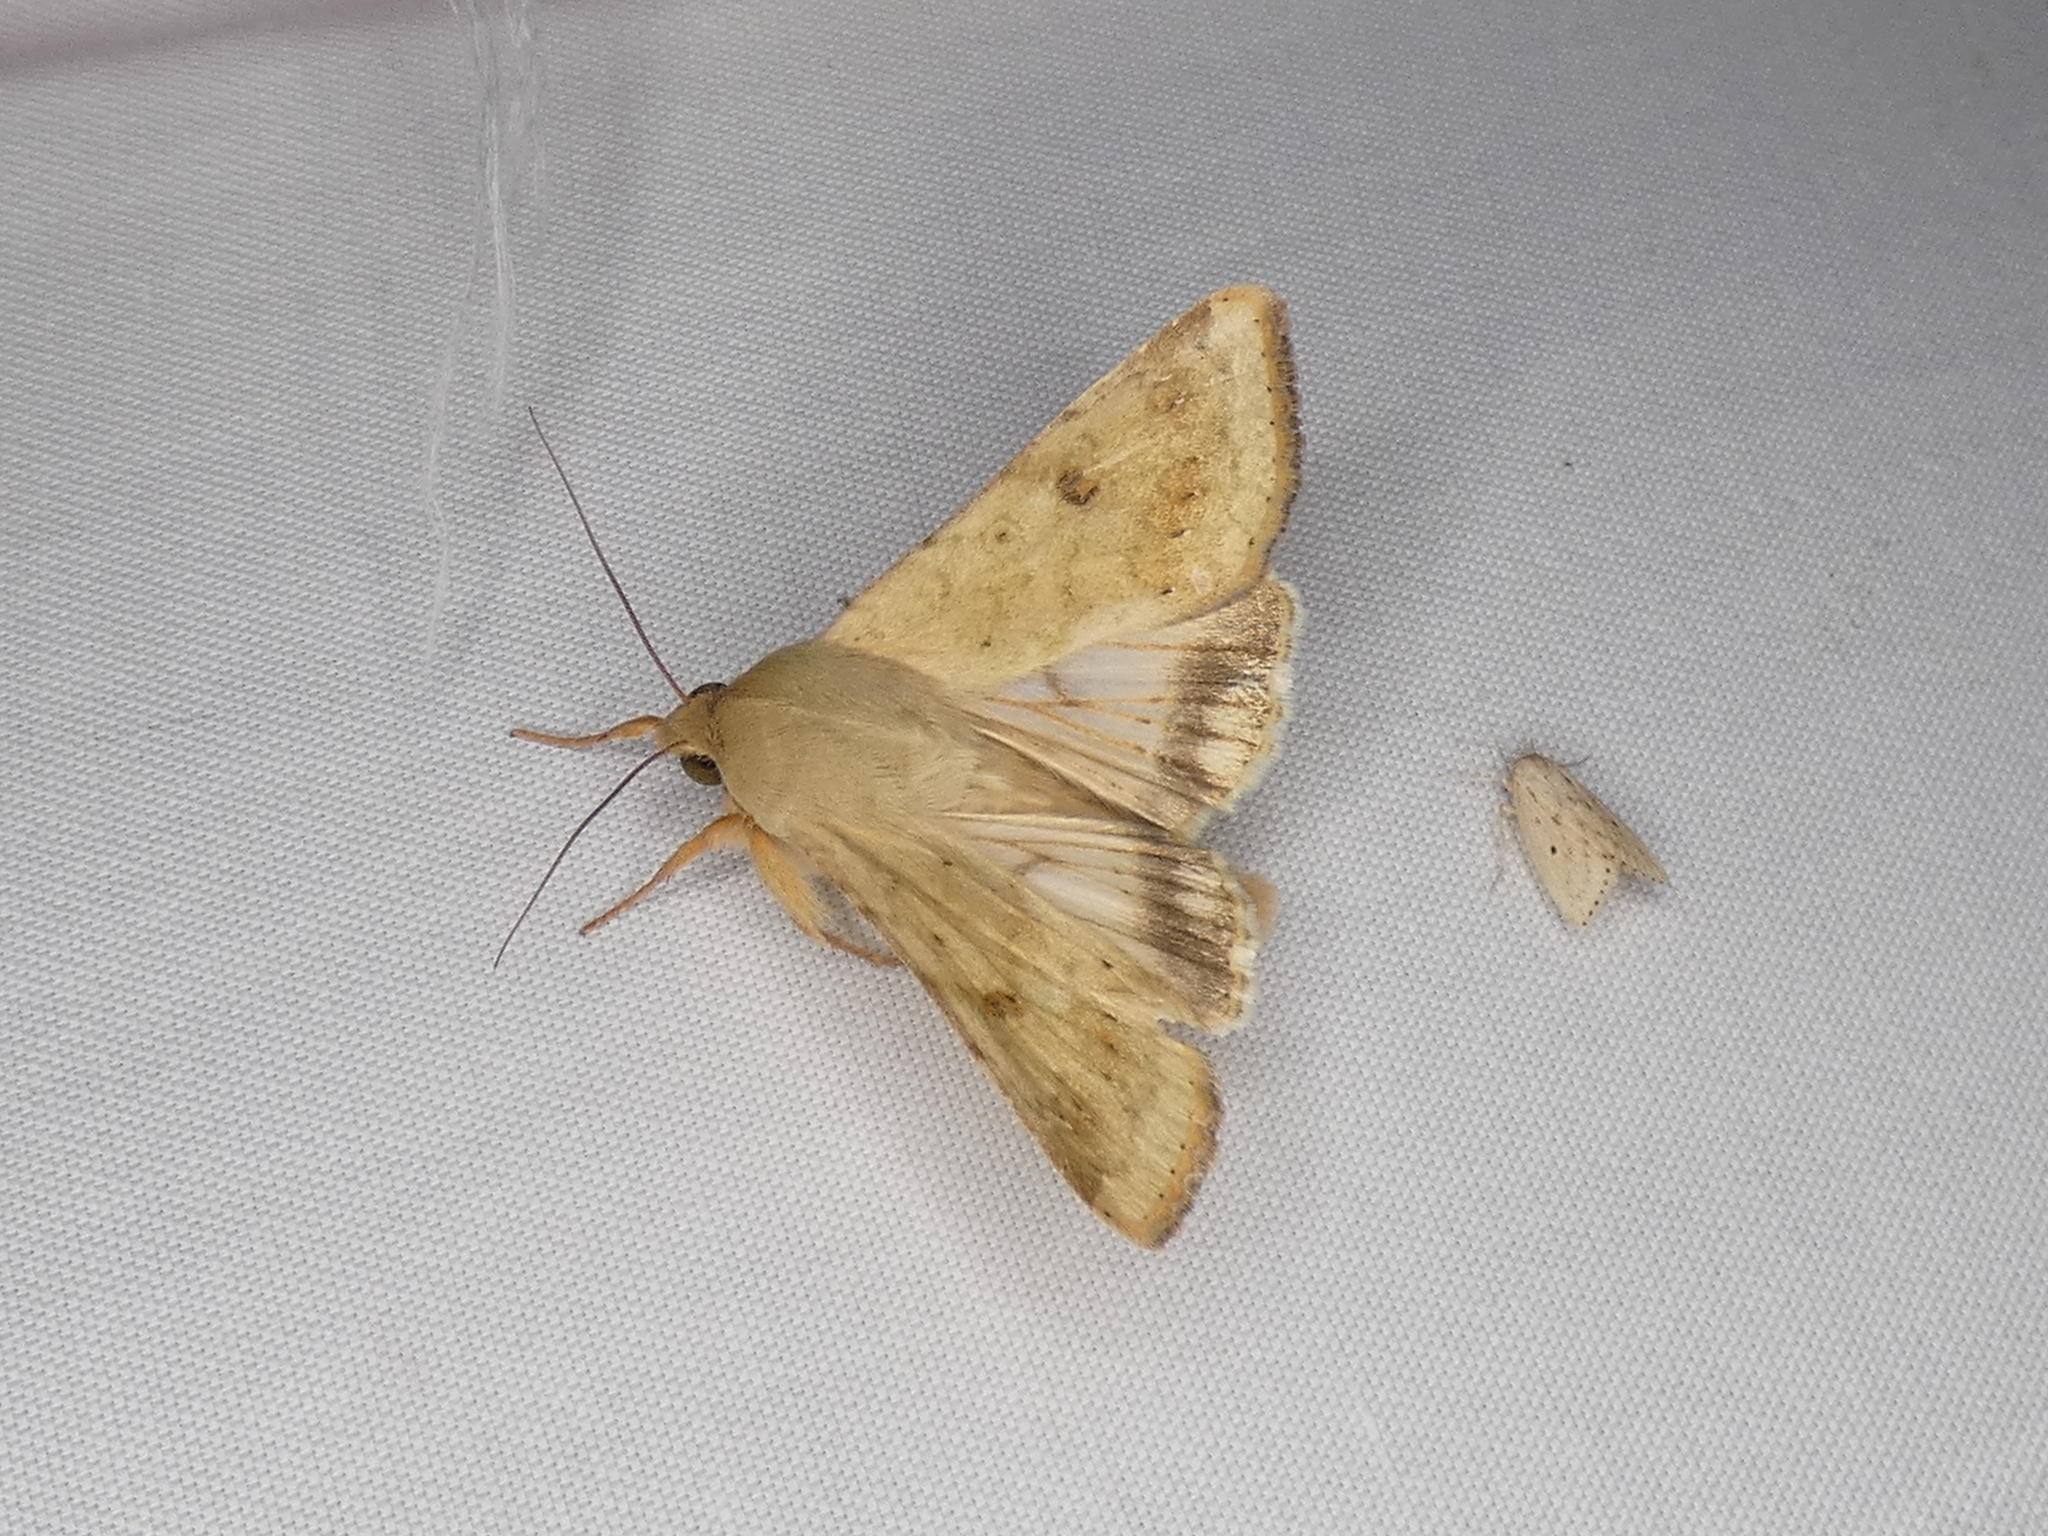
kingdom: Animalia
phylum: Arthropoda
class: Insecta
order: Lepidoptera
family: Noctuidae
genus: Helicoverpa
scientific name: Helicoverpa zea
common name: Bollworm
